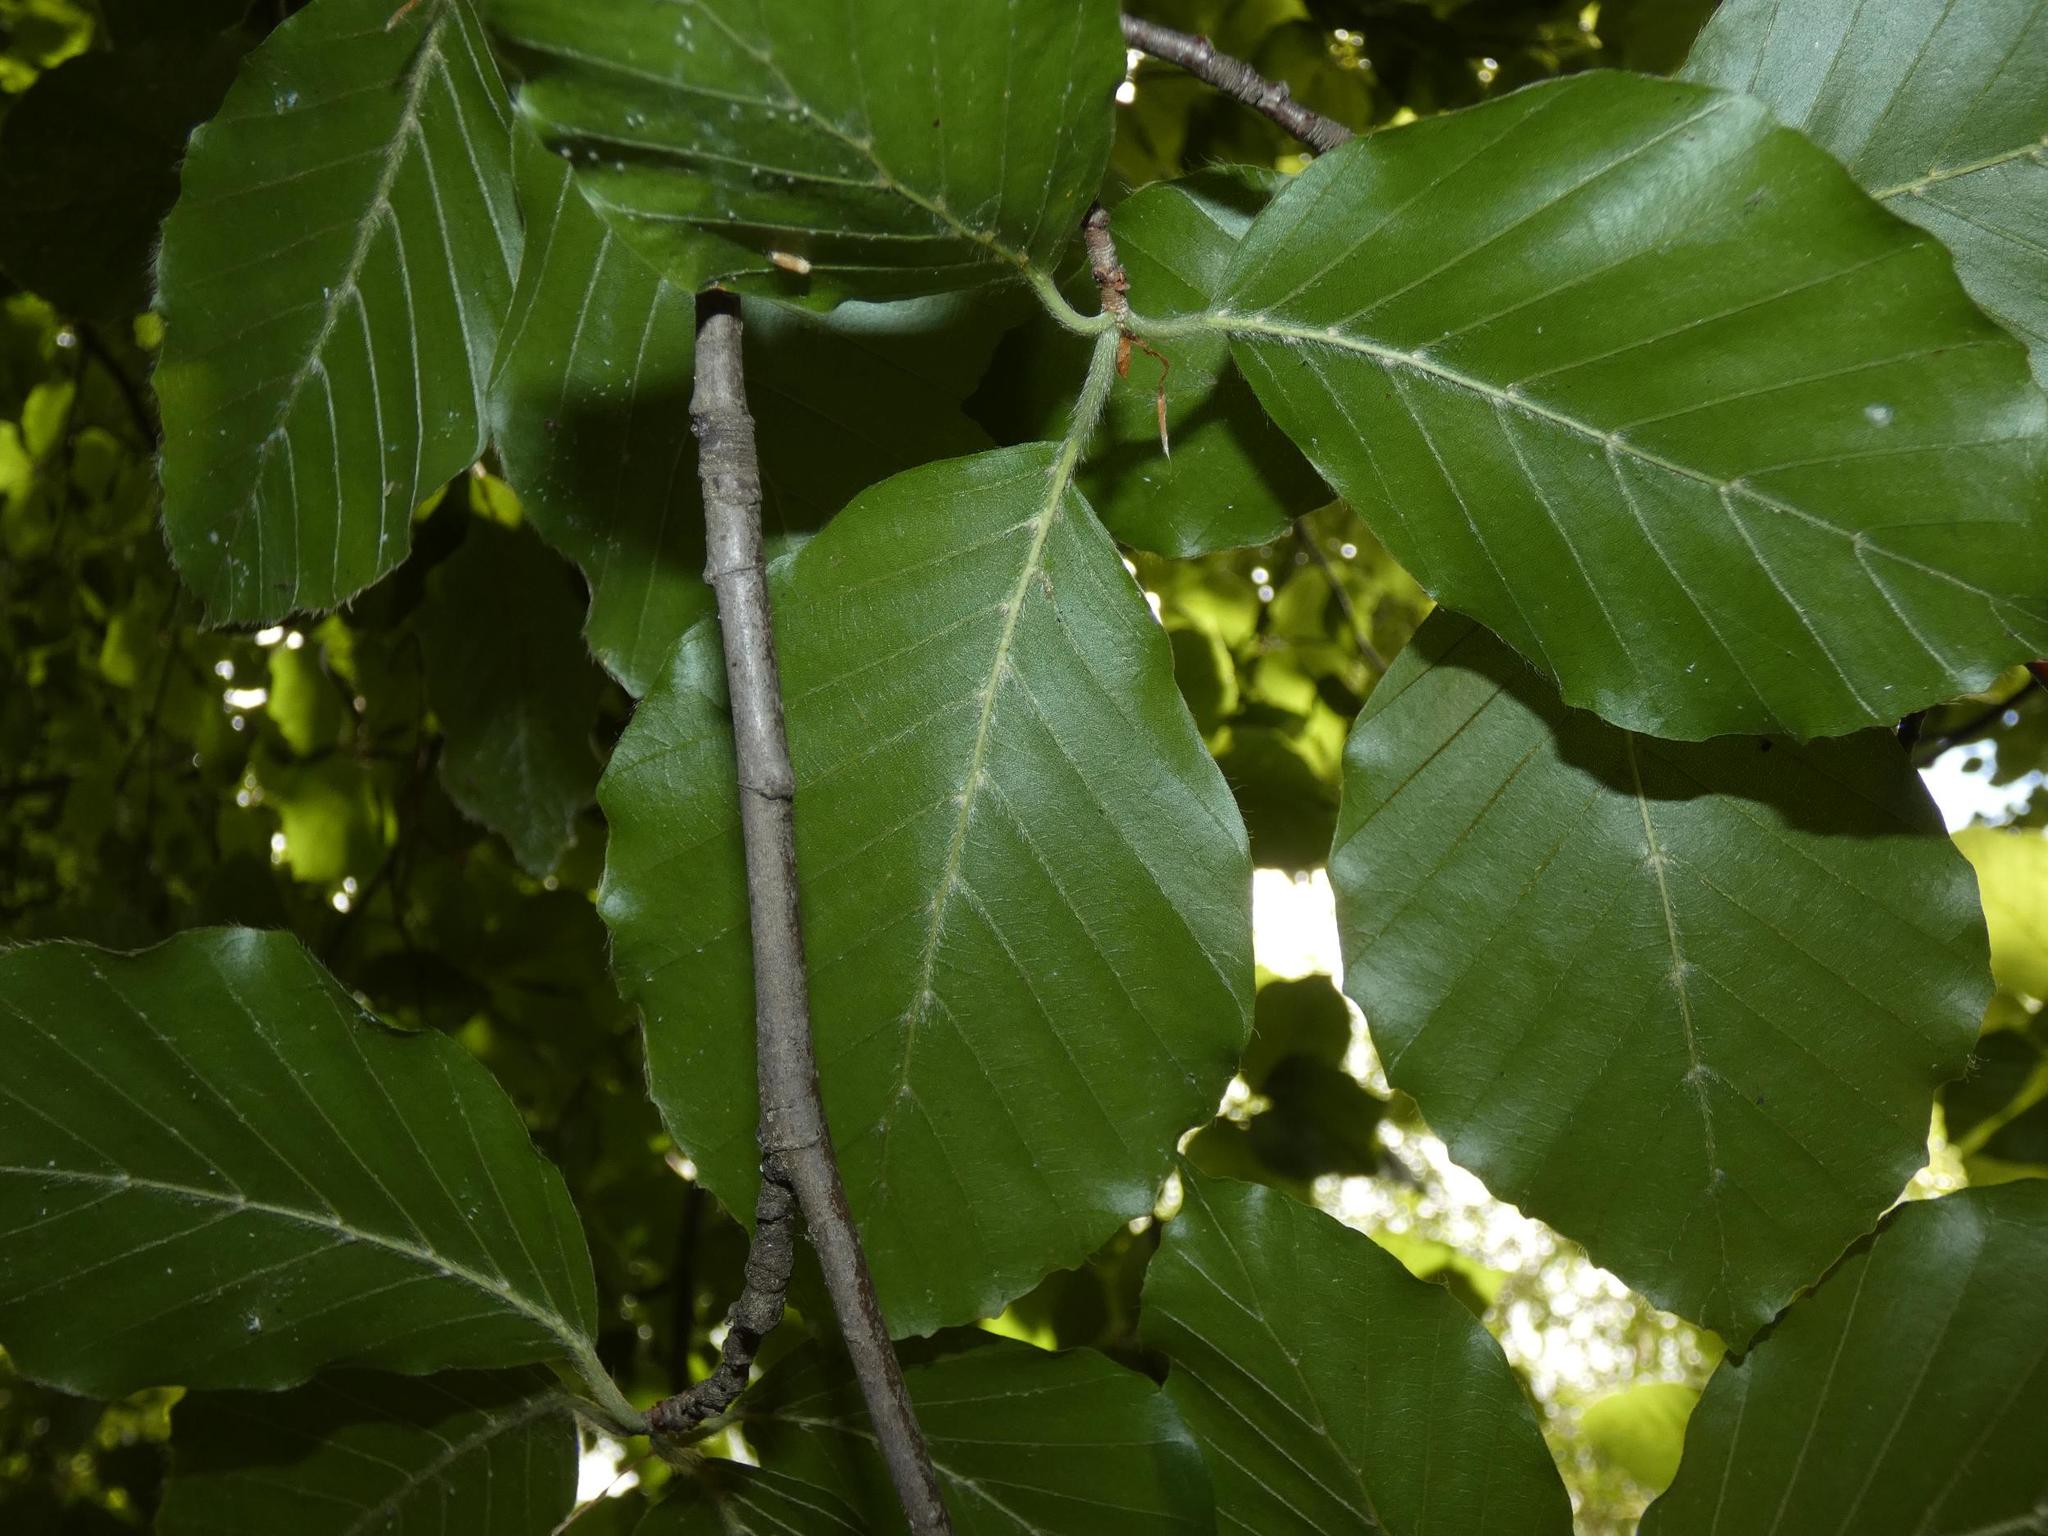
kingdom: Plantae
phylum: Tracheophyta
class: Magnoliopsida
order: Fagales
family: Fagaceae
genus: Fagus
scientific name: Fagus sylvatica
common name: Beech
